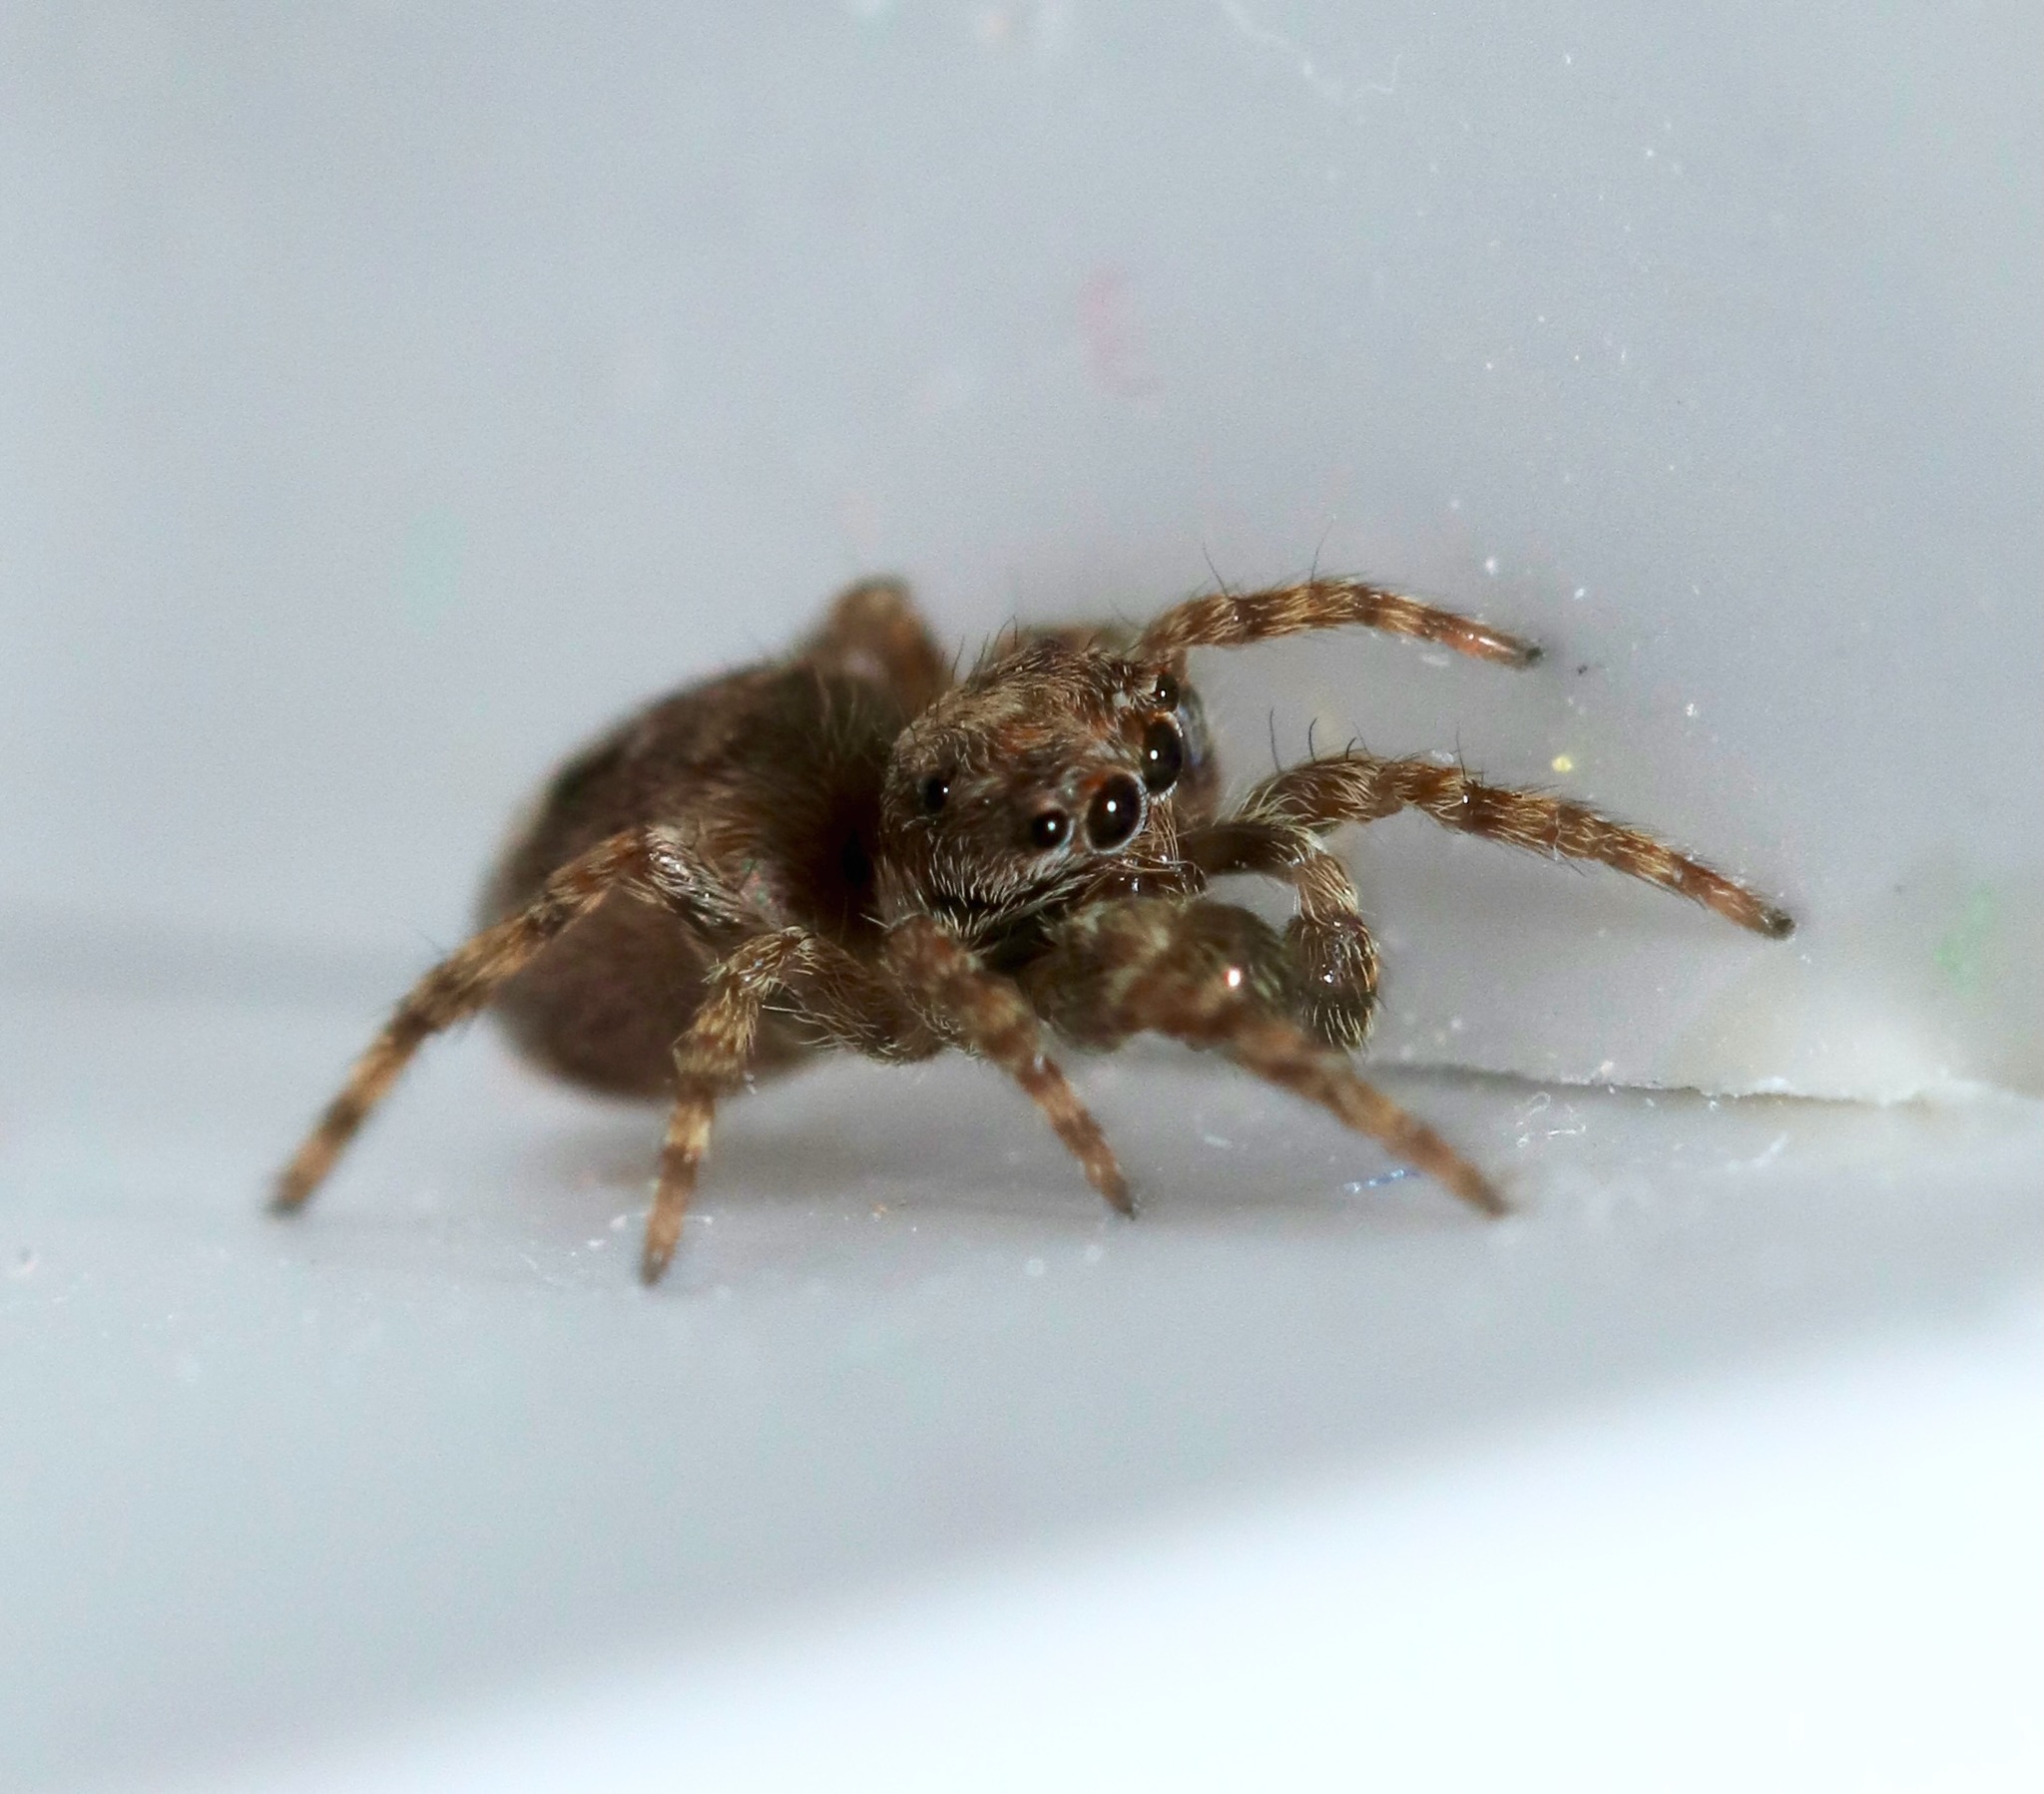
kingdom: Animalia
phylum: Arthropoda
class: Arachnida
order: Araneae
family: Salticidae
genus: Attulus
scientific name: Attulus fasciger
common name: Asiatic wall jumping spider
